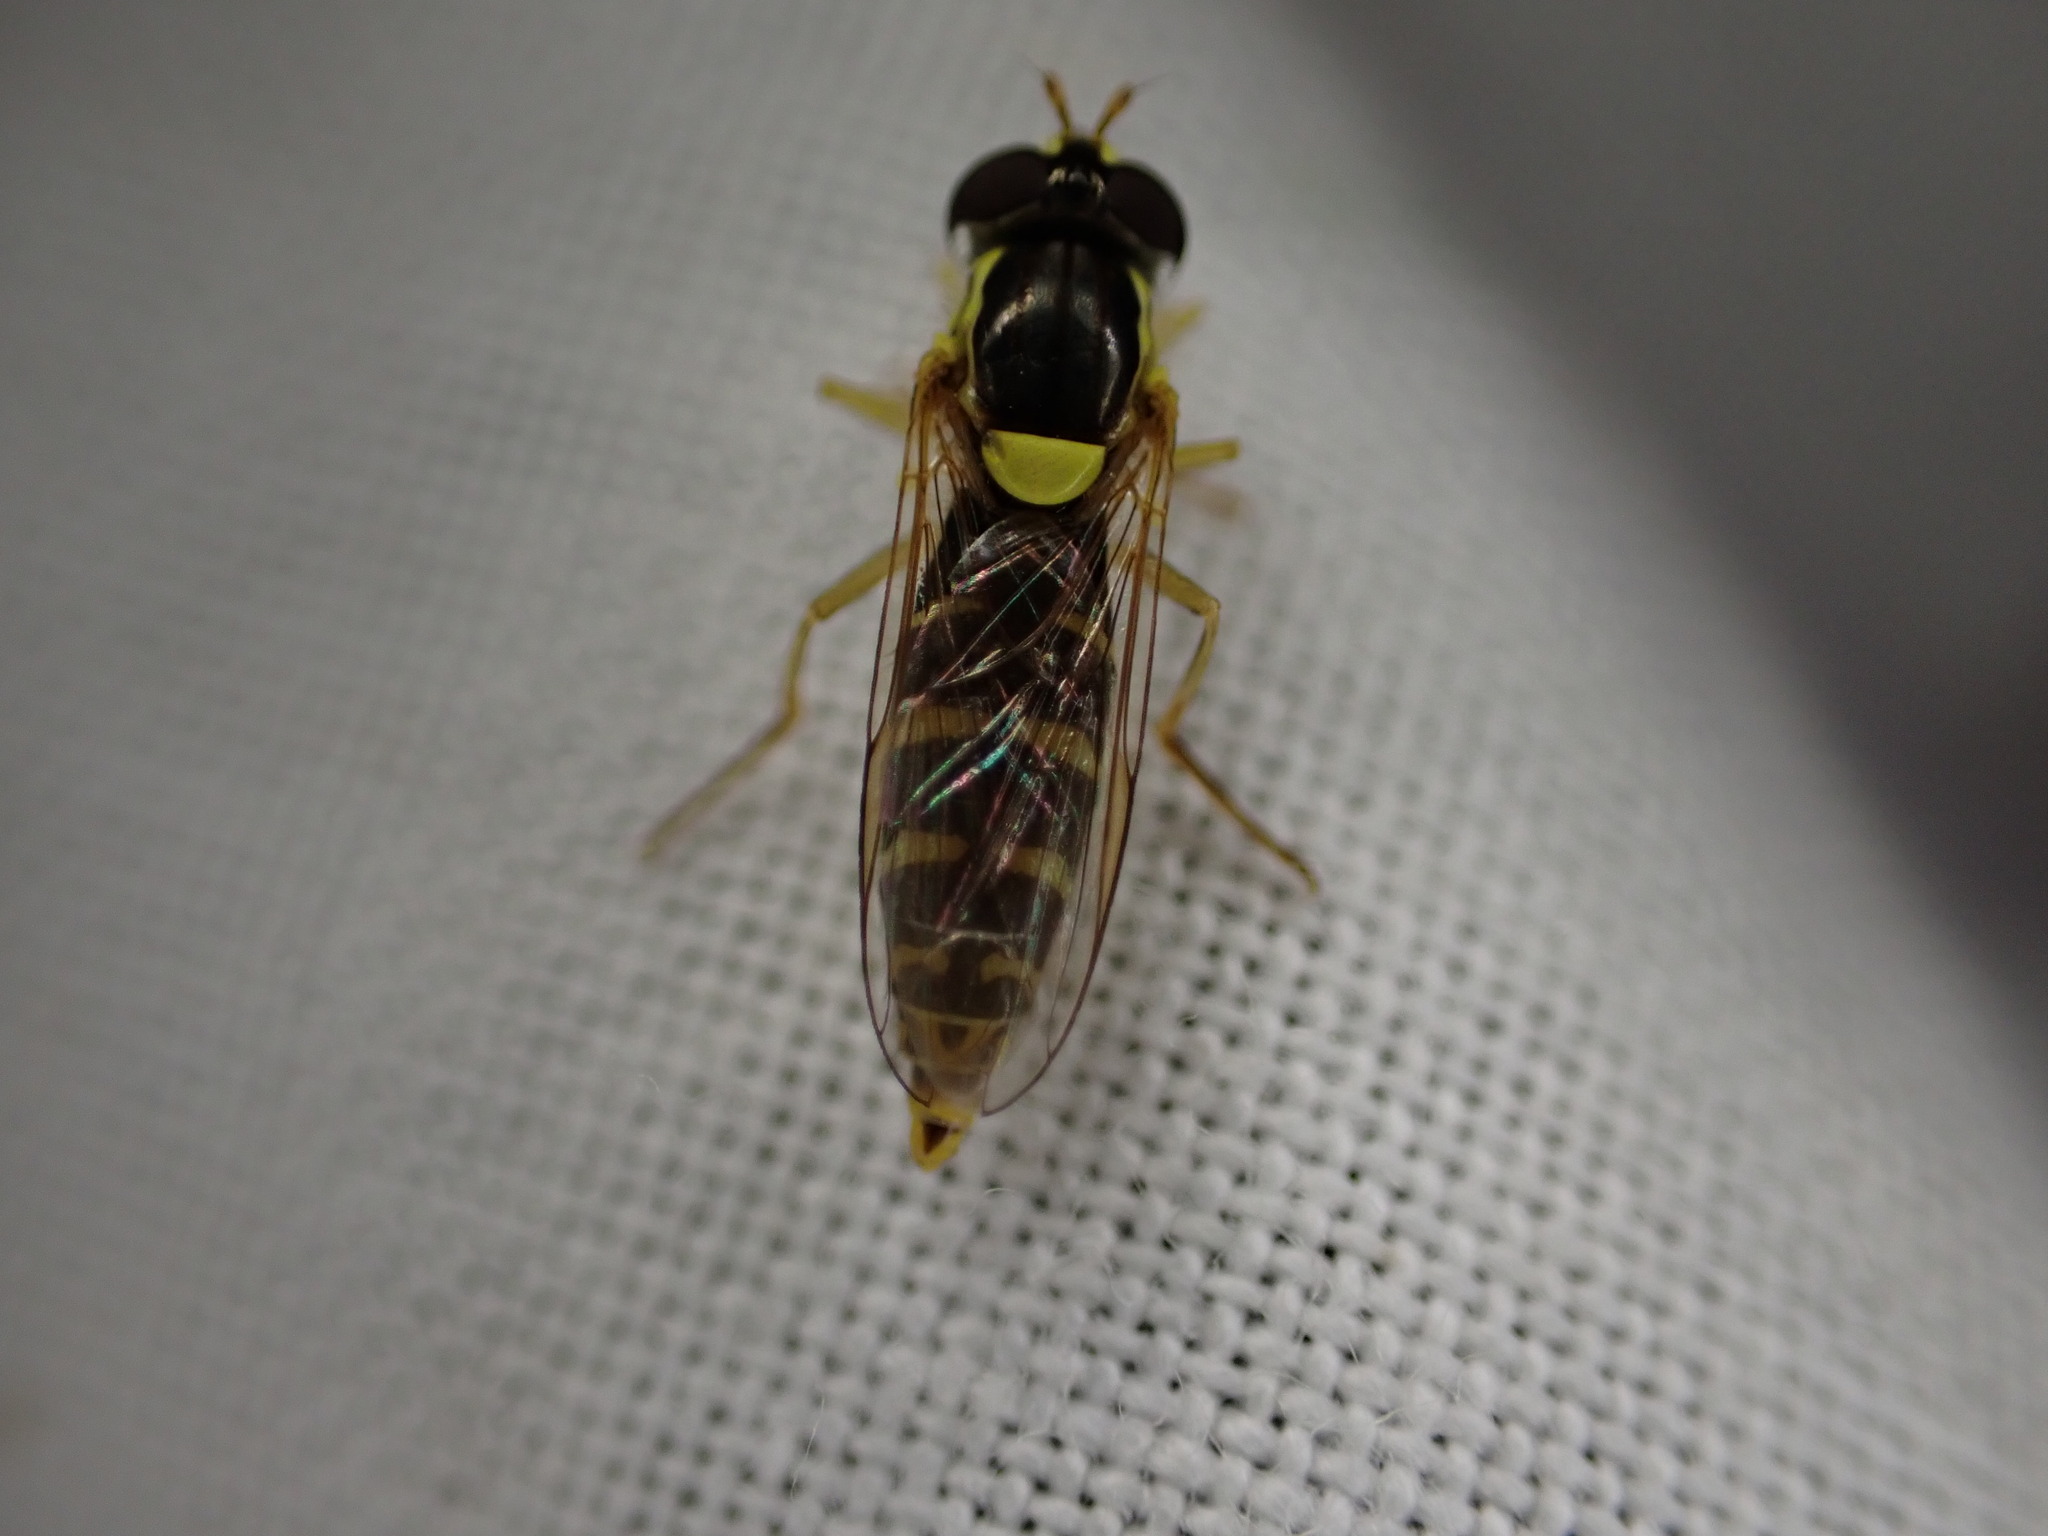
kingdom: Animalia
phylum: Arthropoda
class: Insecta
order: Diptera
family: Syrphidae
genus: Sphaerophoria
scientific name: Sphaerophoria
